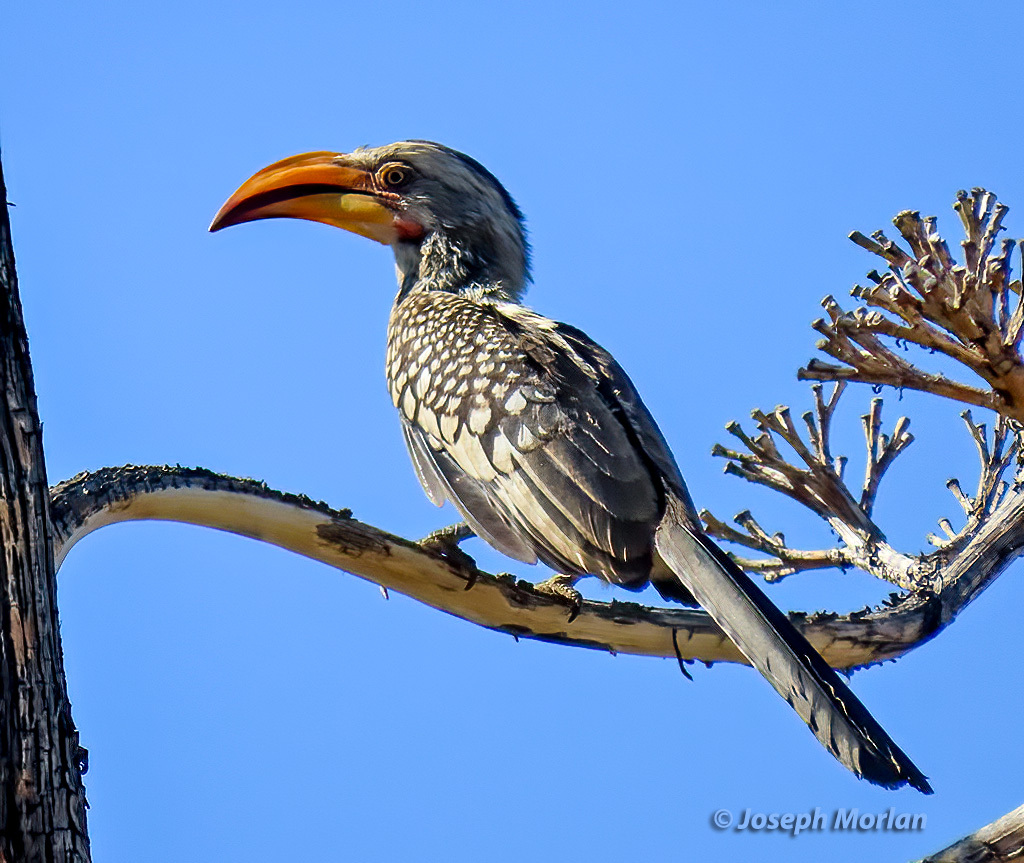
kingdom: Animalia
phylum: Chordata
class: Aves
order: Bucerotiformes
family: Bucerotidae
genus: Tockus
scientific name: Tockus leucomelas
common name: Southern yellow-billed hornbill
